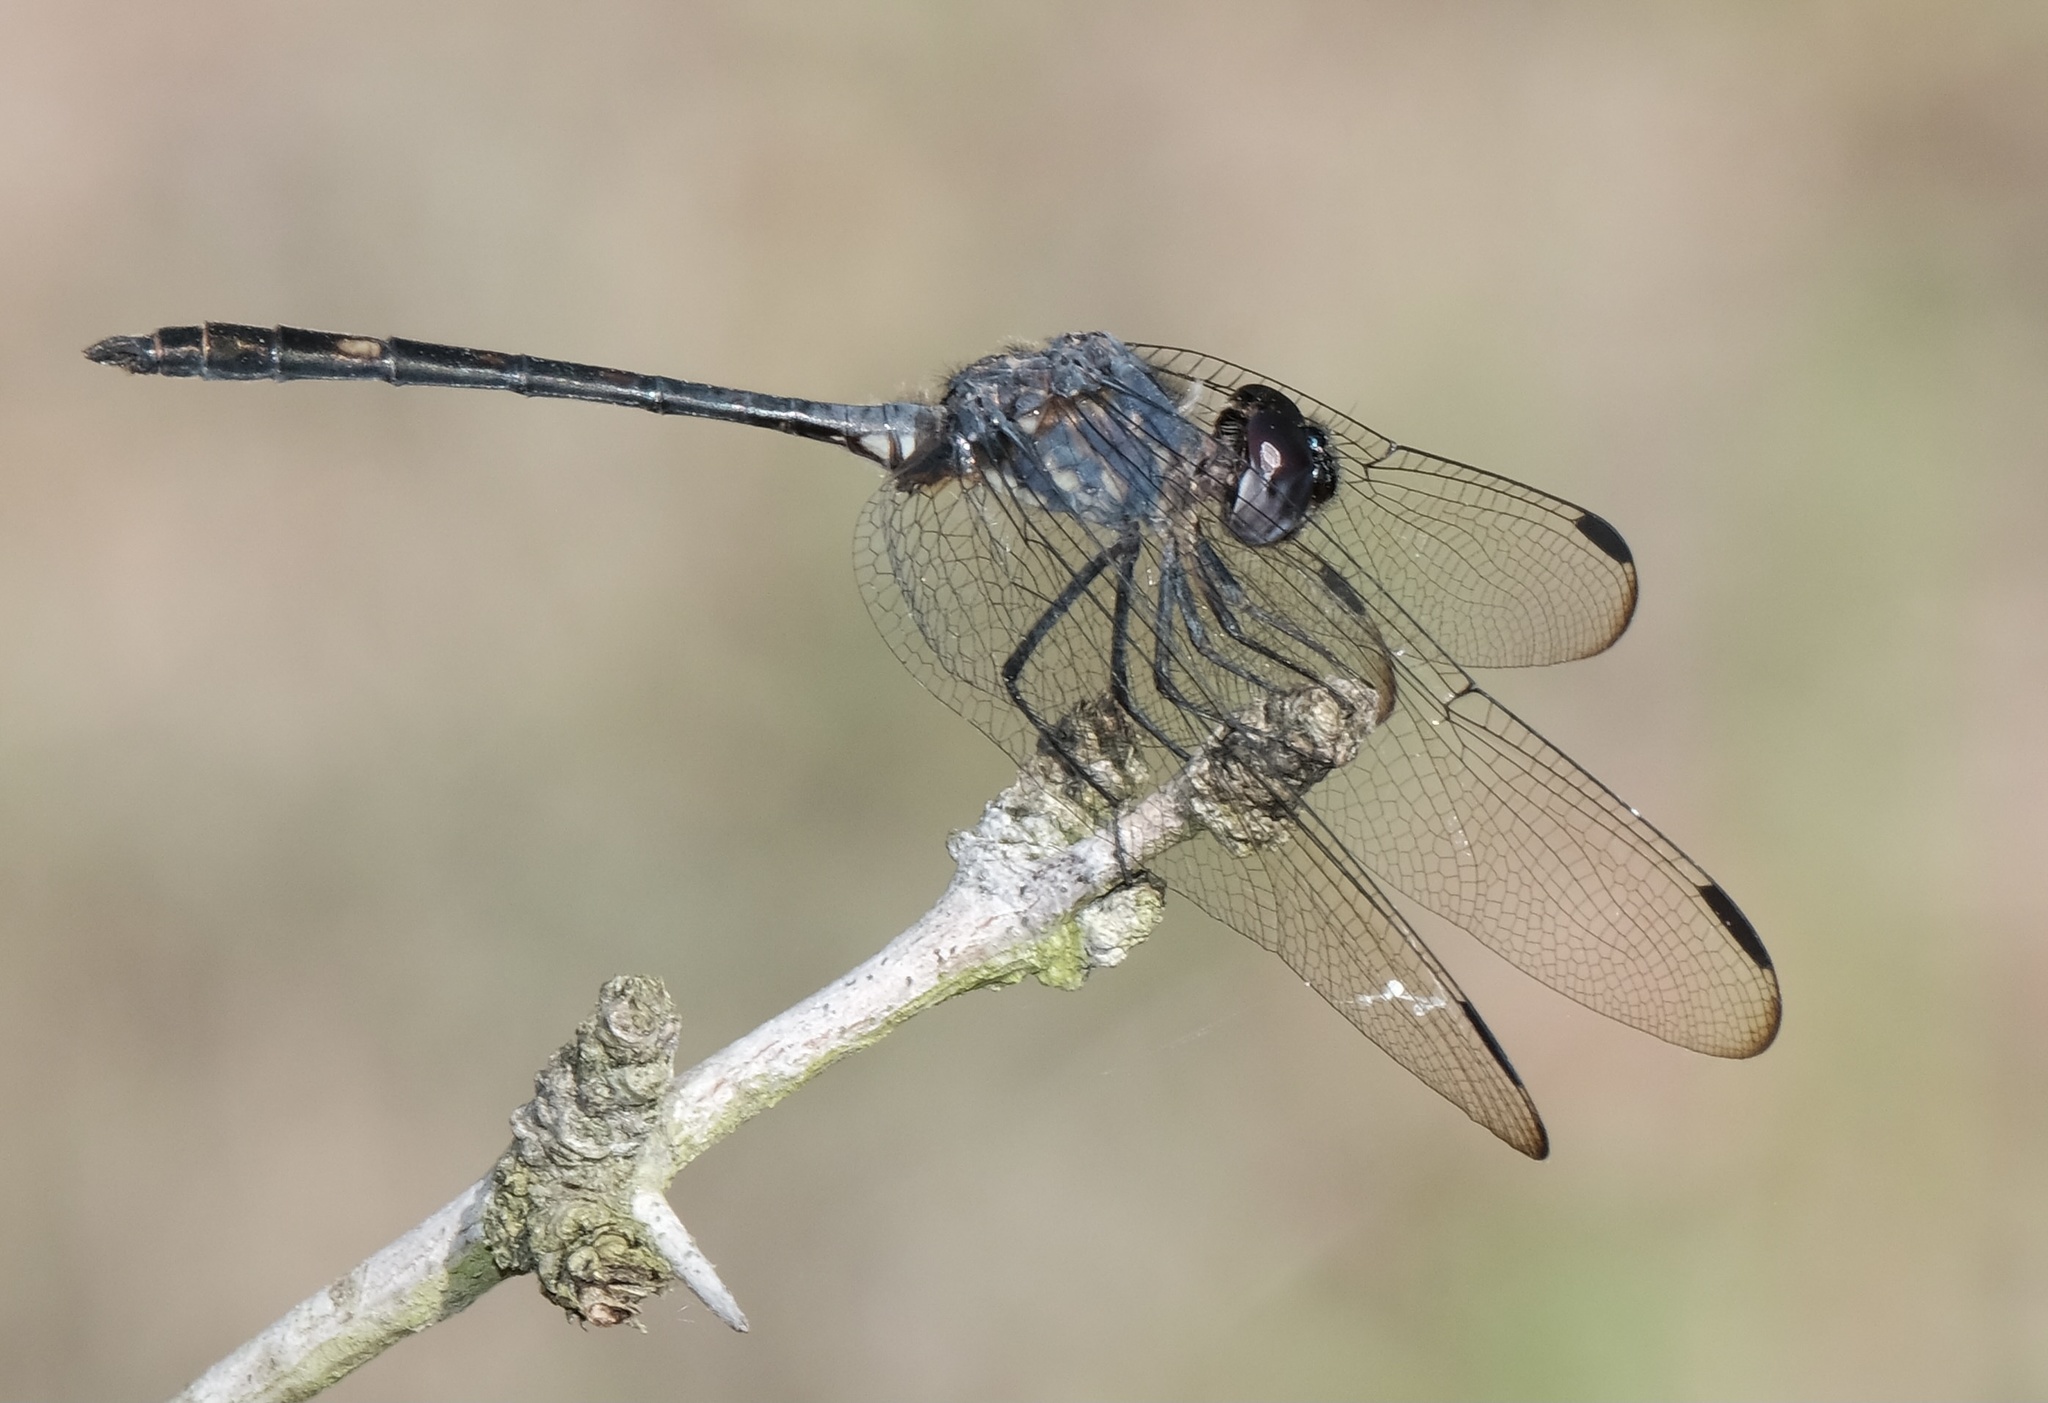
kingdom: Animalia
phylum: Arthropoda
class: Insecta
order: Odonata
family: Libellulidae
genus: Dythemis
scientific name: Dythemis nigrescens
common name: Black setwing
